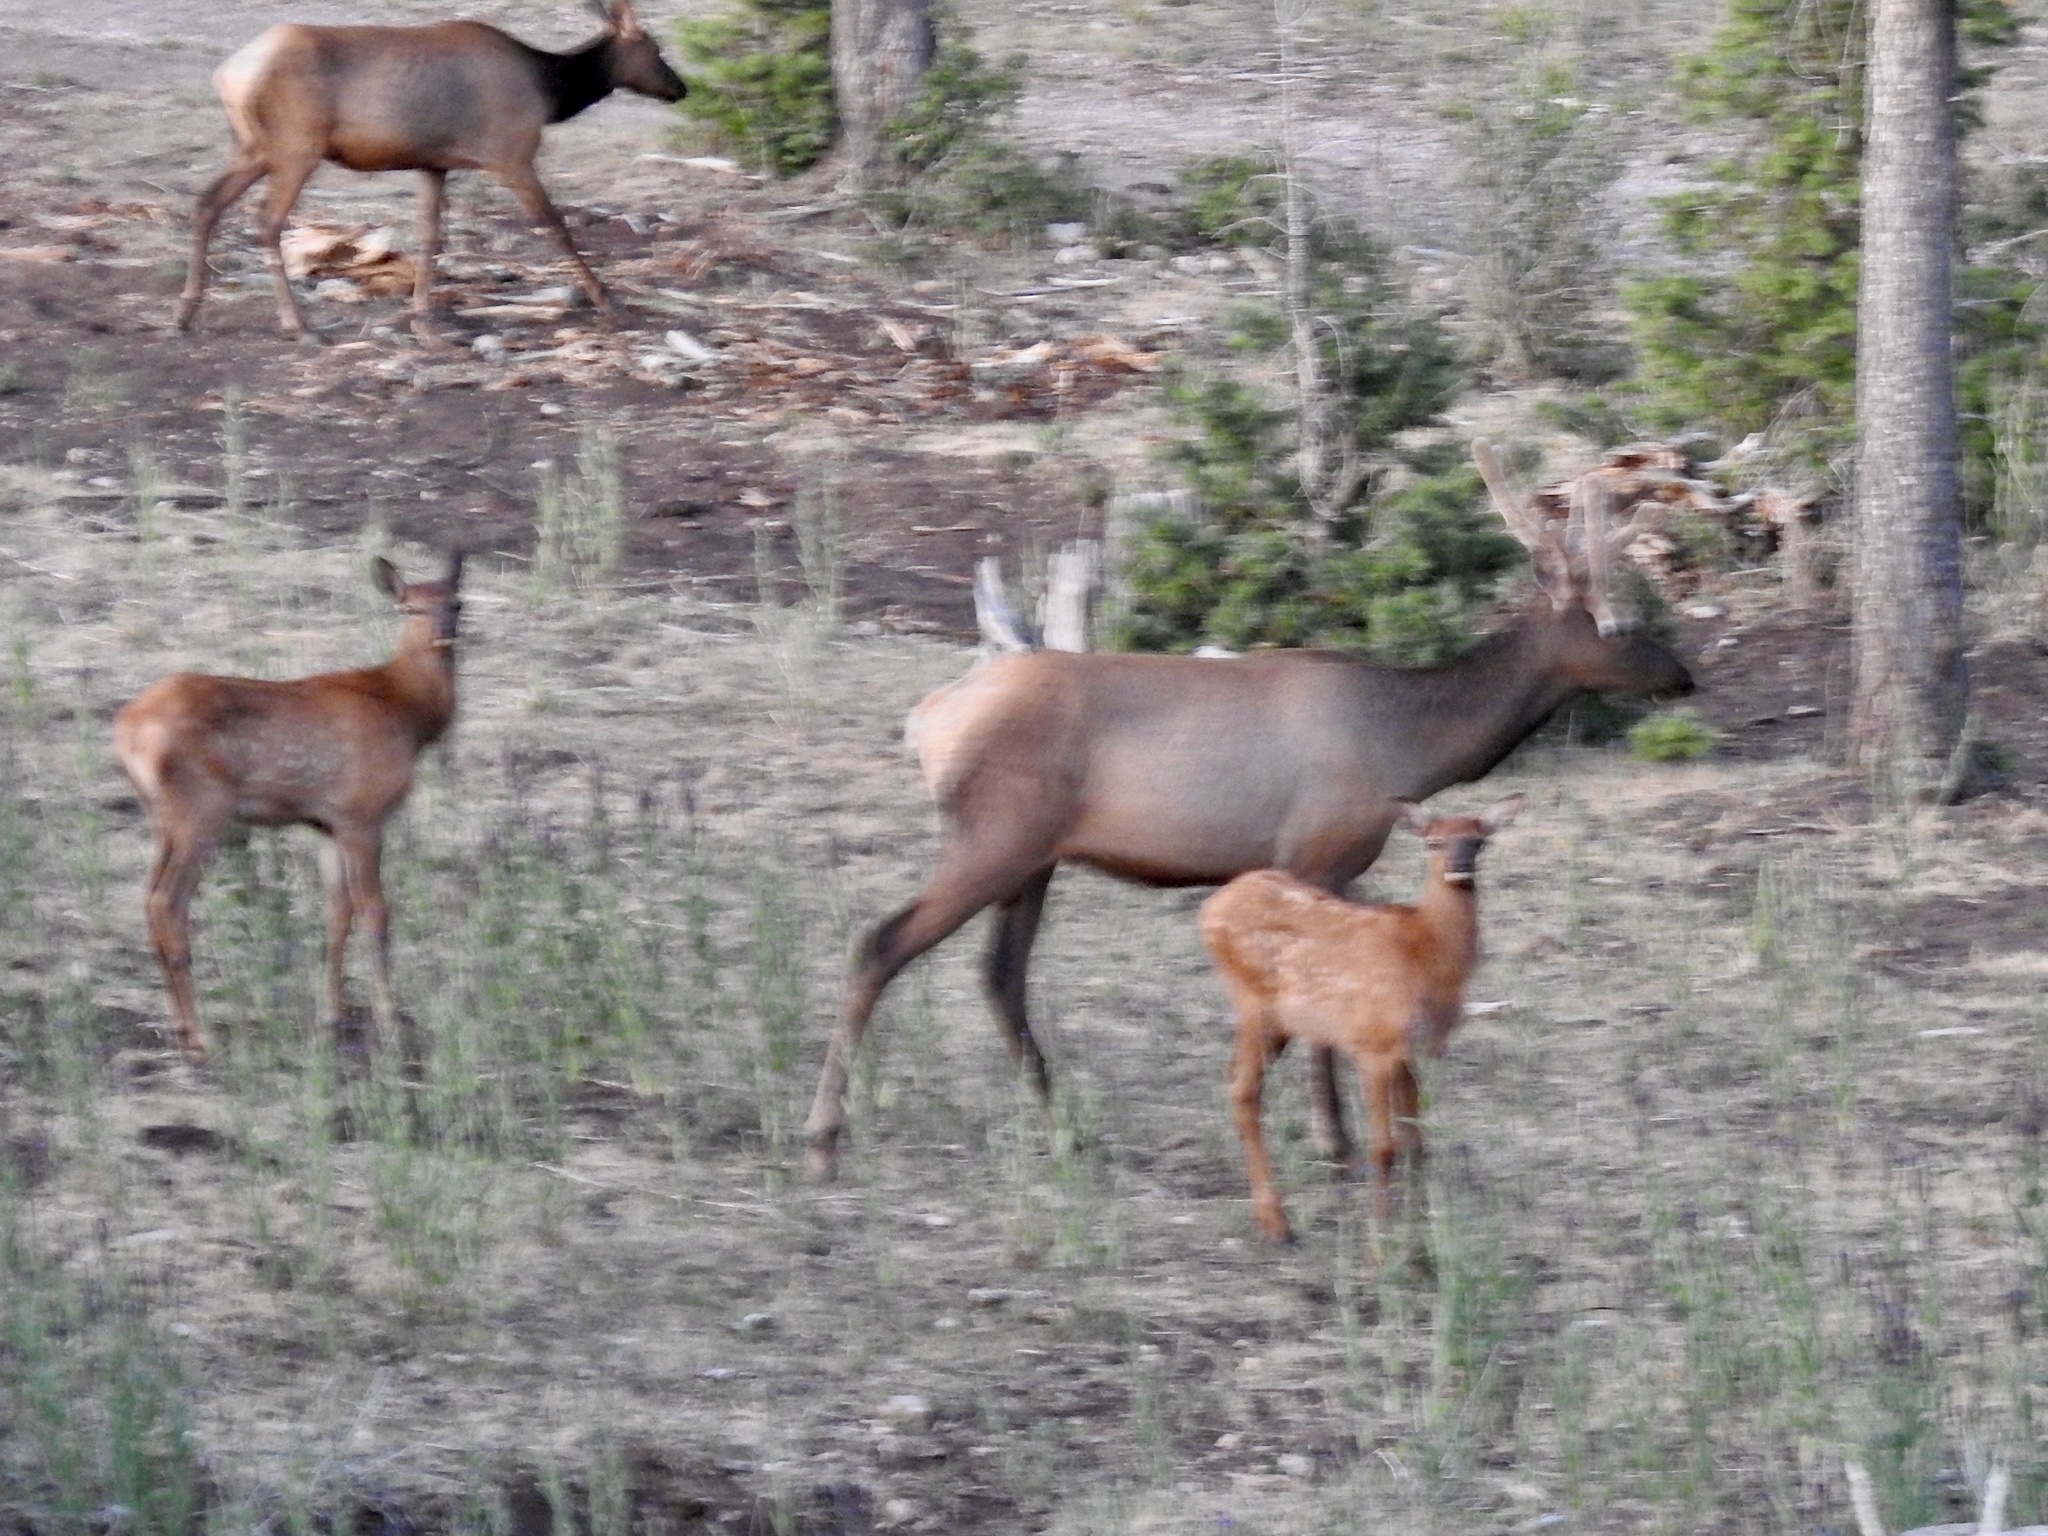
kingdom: Animalia
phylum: Chordata
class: Mammalia
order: Artiodactyla
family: Cervidae
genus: Cervus
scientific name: Cervus elaphus
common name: Red deer
